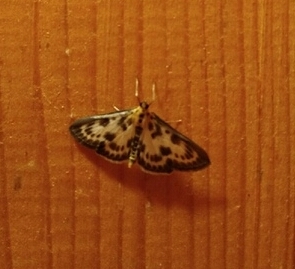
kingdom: Animalia
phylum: Arthropoda
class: Insecta
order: Lepidoptera
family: Crambidae
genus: Anania
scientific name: Anania hortulata
